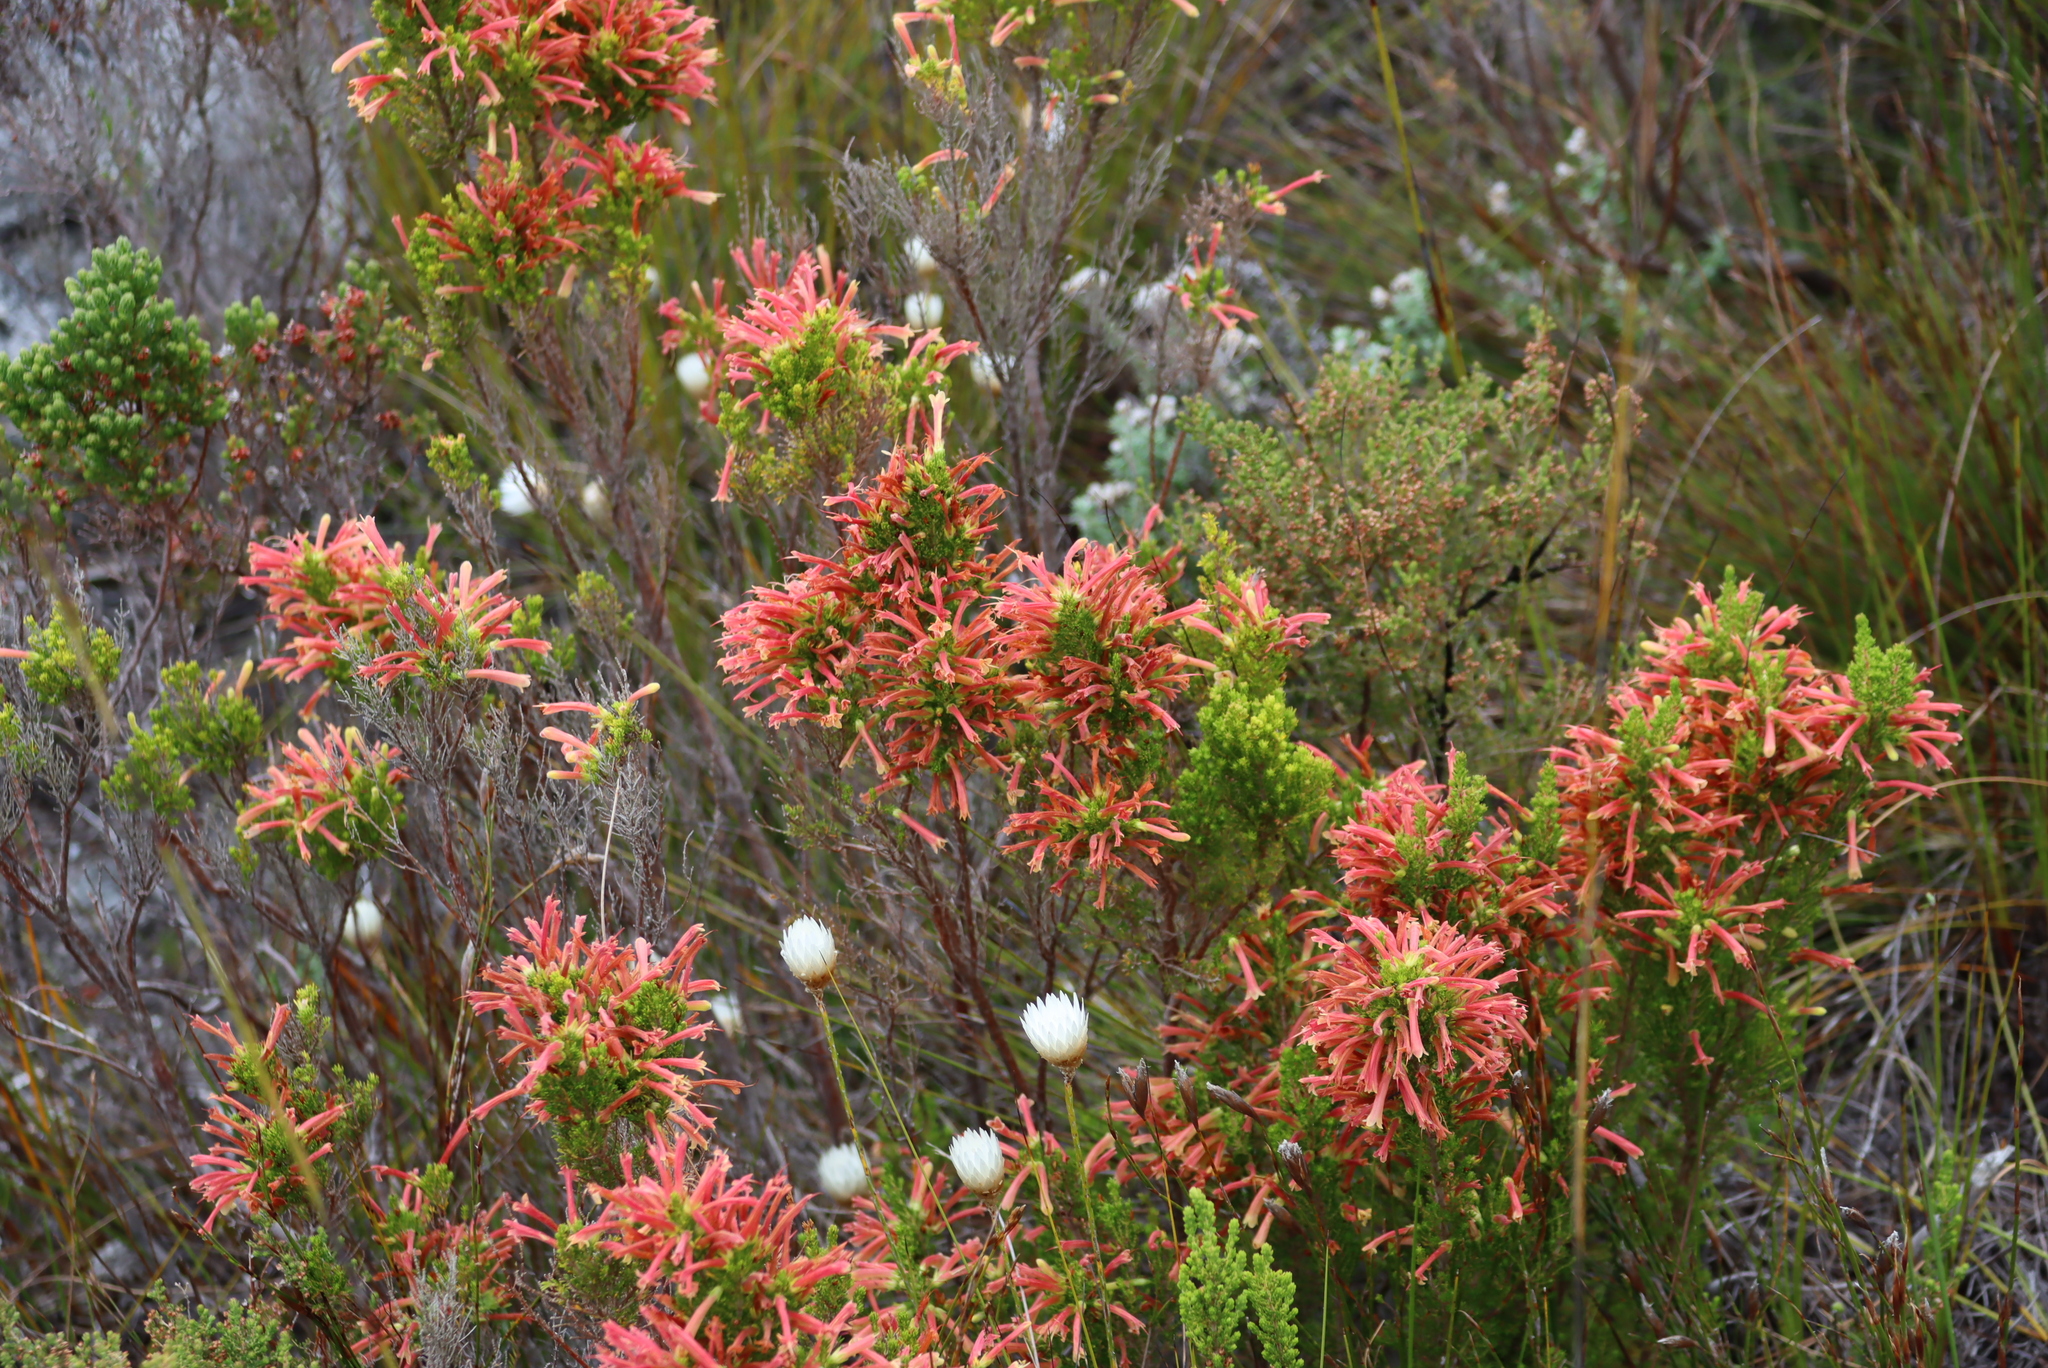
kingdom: Plantae
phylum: Tracheophyta
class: Magnoliopsida
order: Ericales
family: Ericaceae
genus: Erica
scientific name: Erica curviflora
